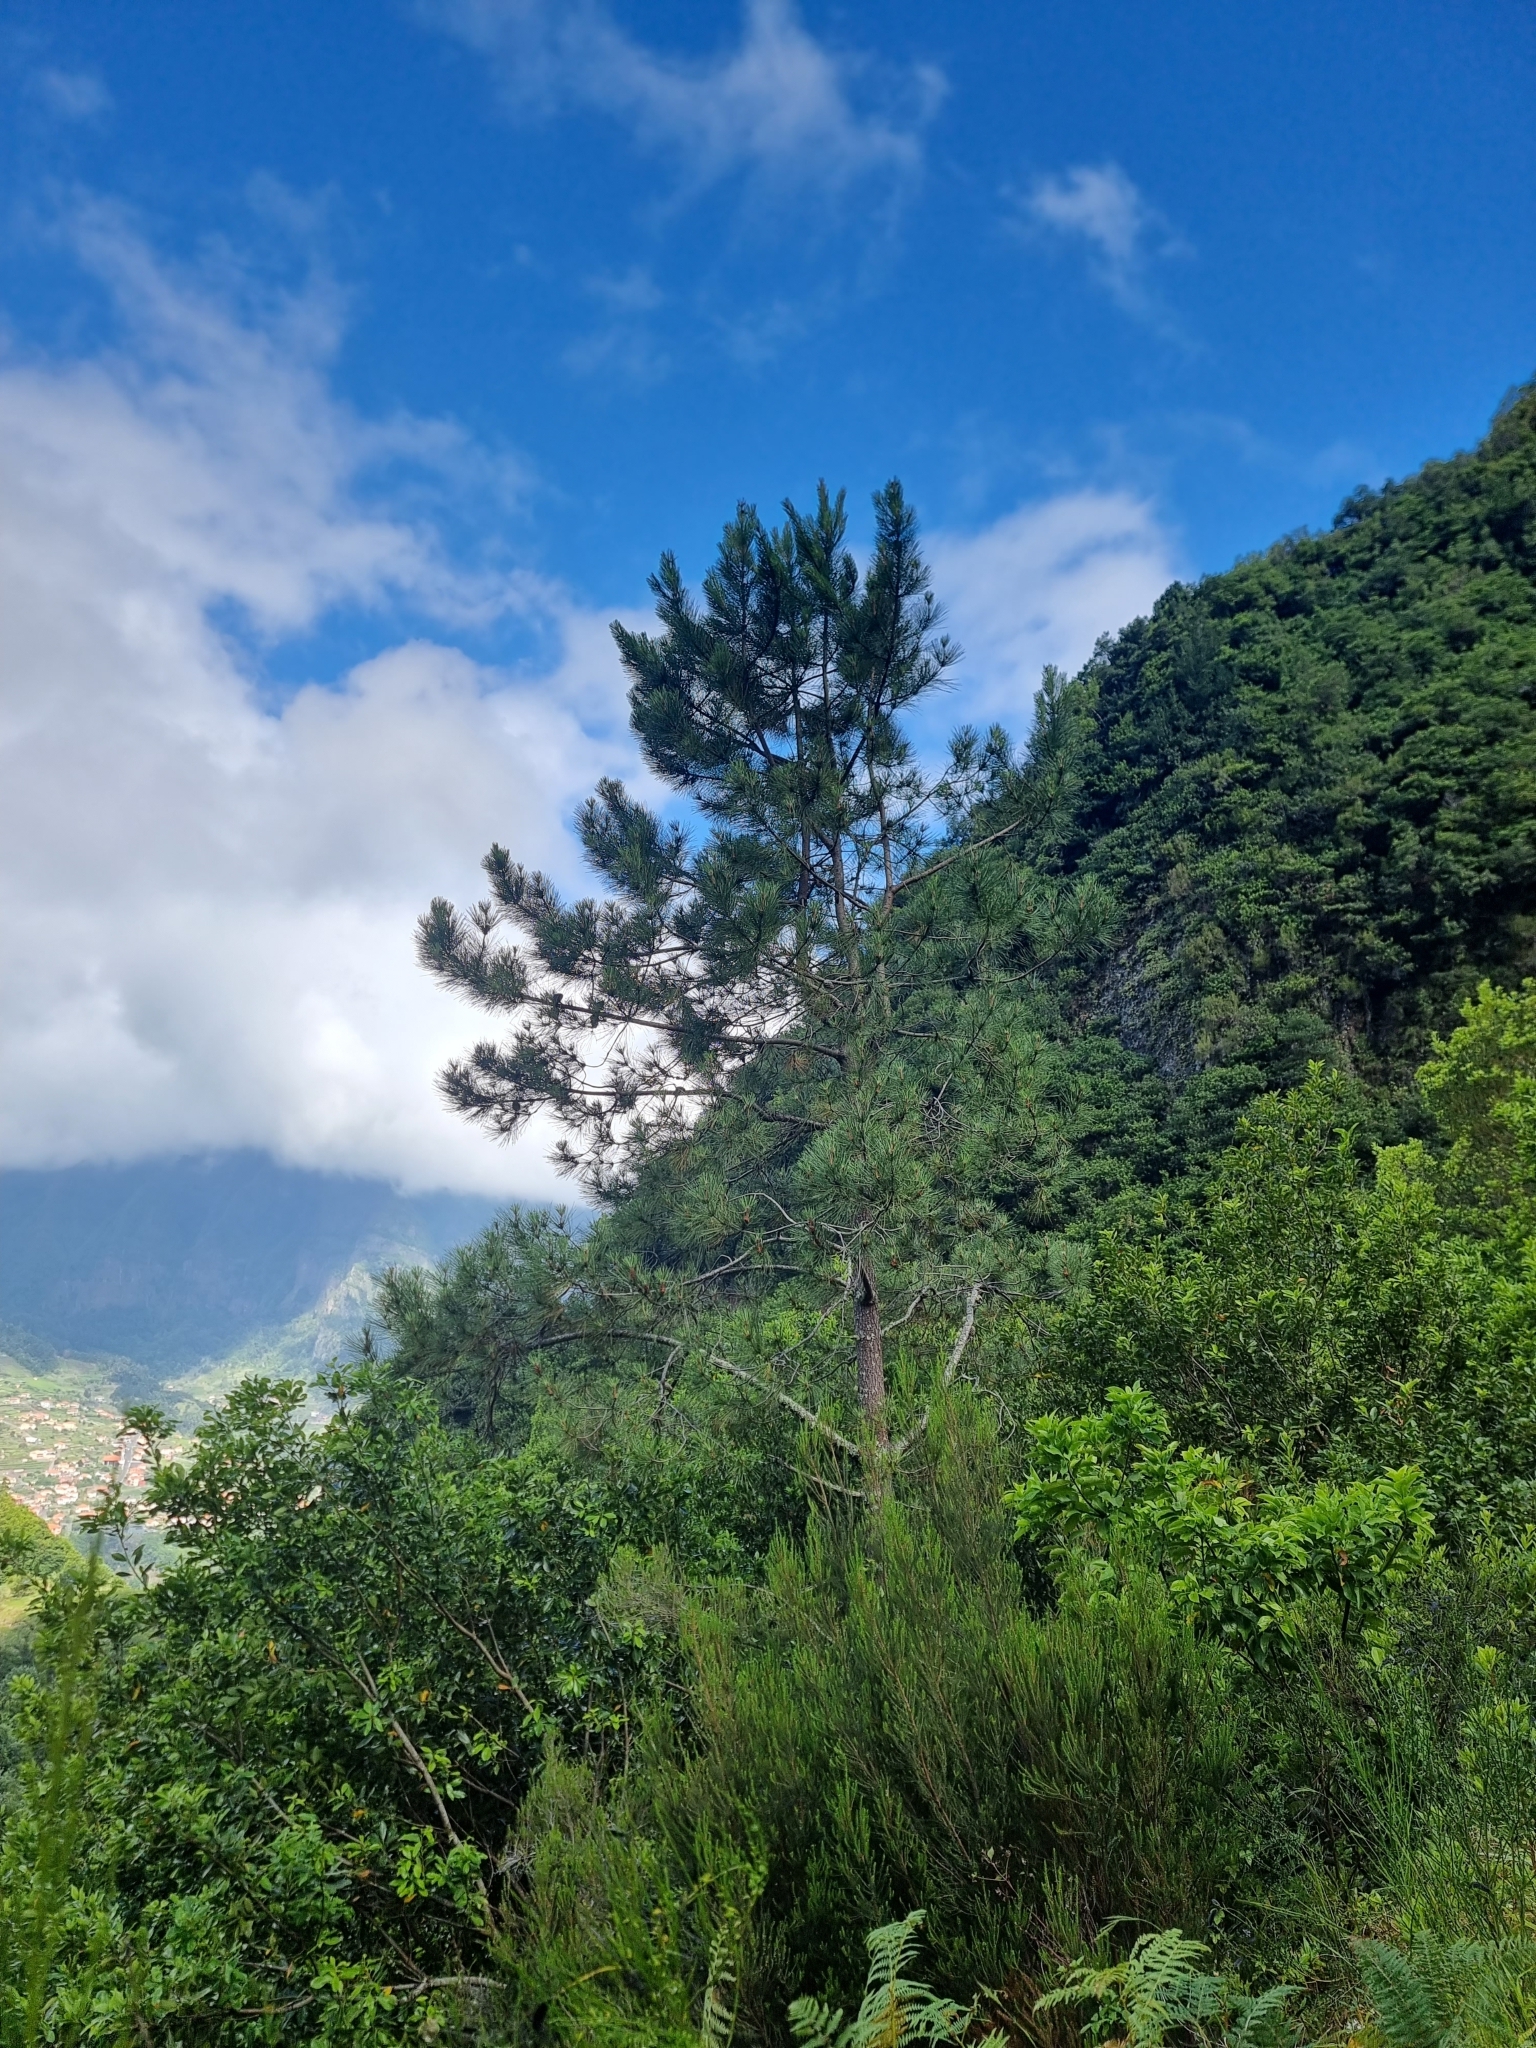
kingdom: Plantae
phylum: Tracheophyta
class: Pinopsida
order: Pinales
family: Pinaceae
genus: Pinus
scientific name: Pinus pinaster
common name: Maritime pine
